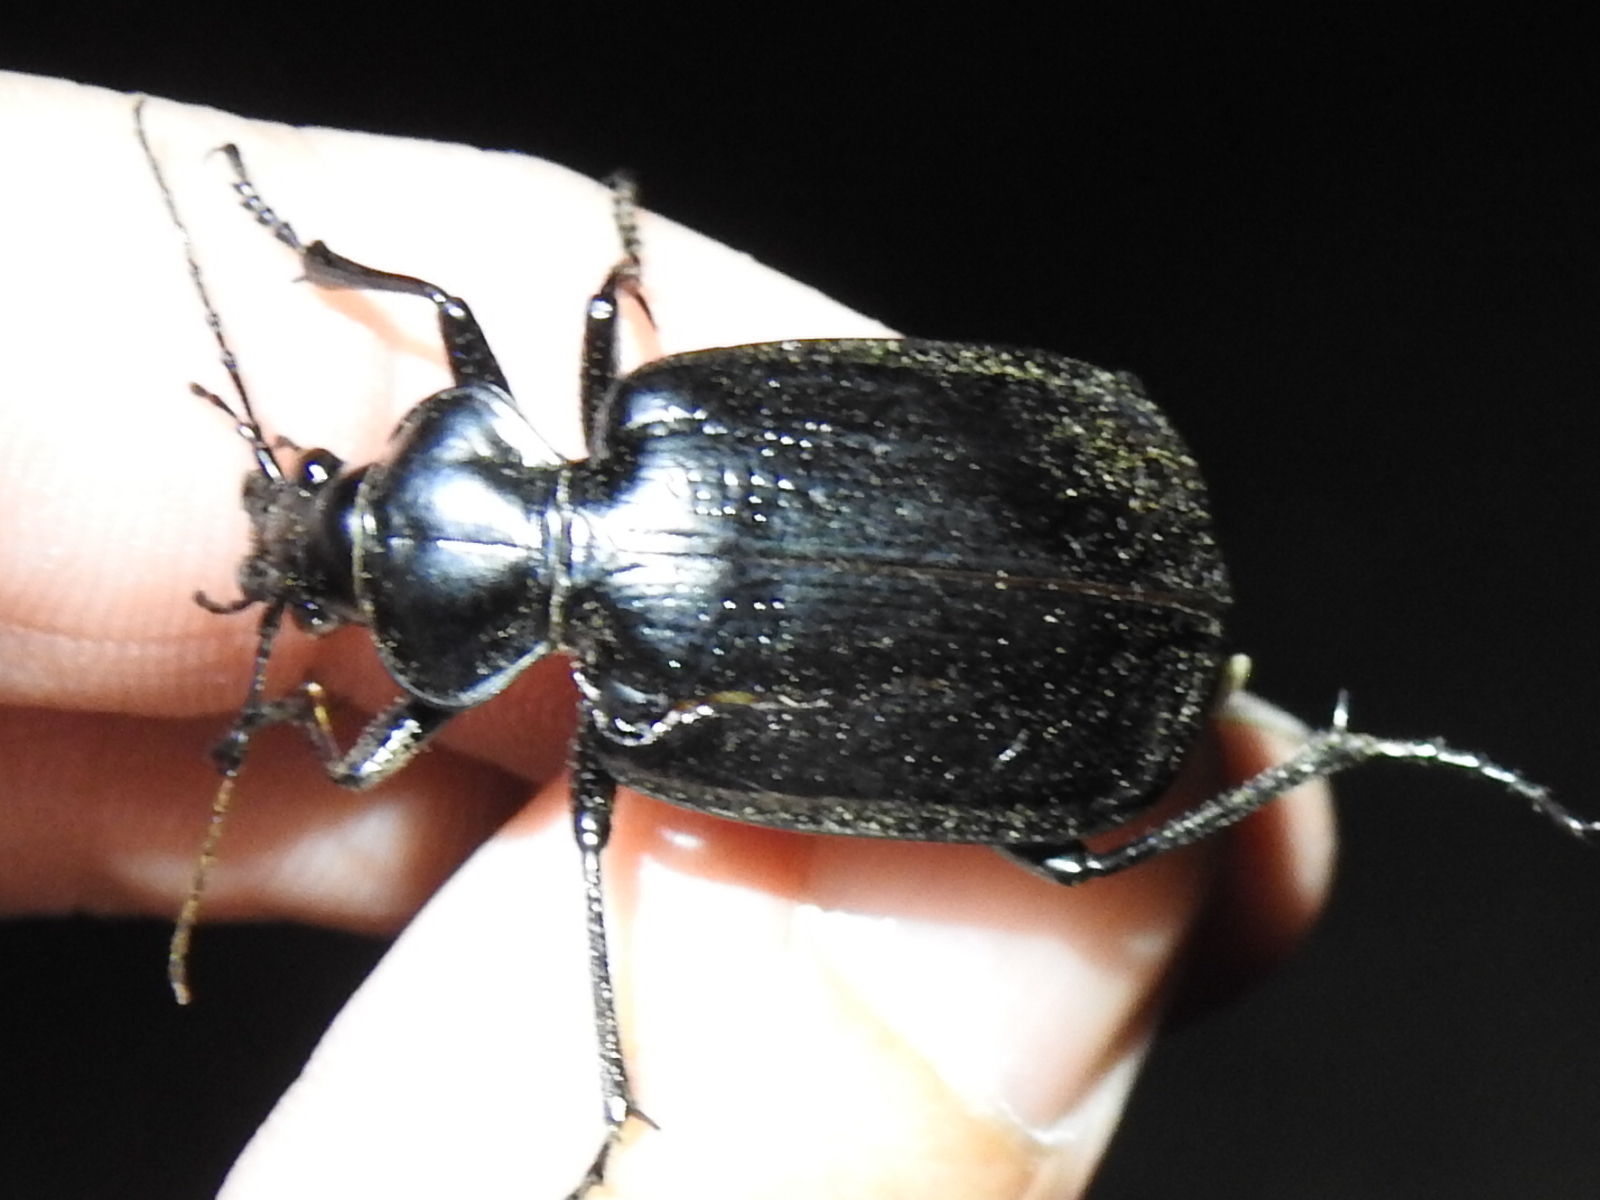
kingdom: Animalia
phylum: Arthropoda
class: Insecta
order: Coleoptera
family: Carabidae
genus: Calosoma
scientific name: Calosoma marginale
